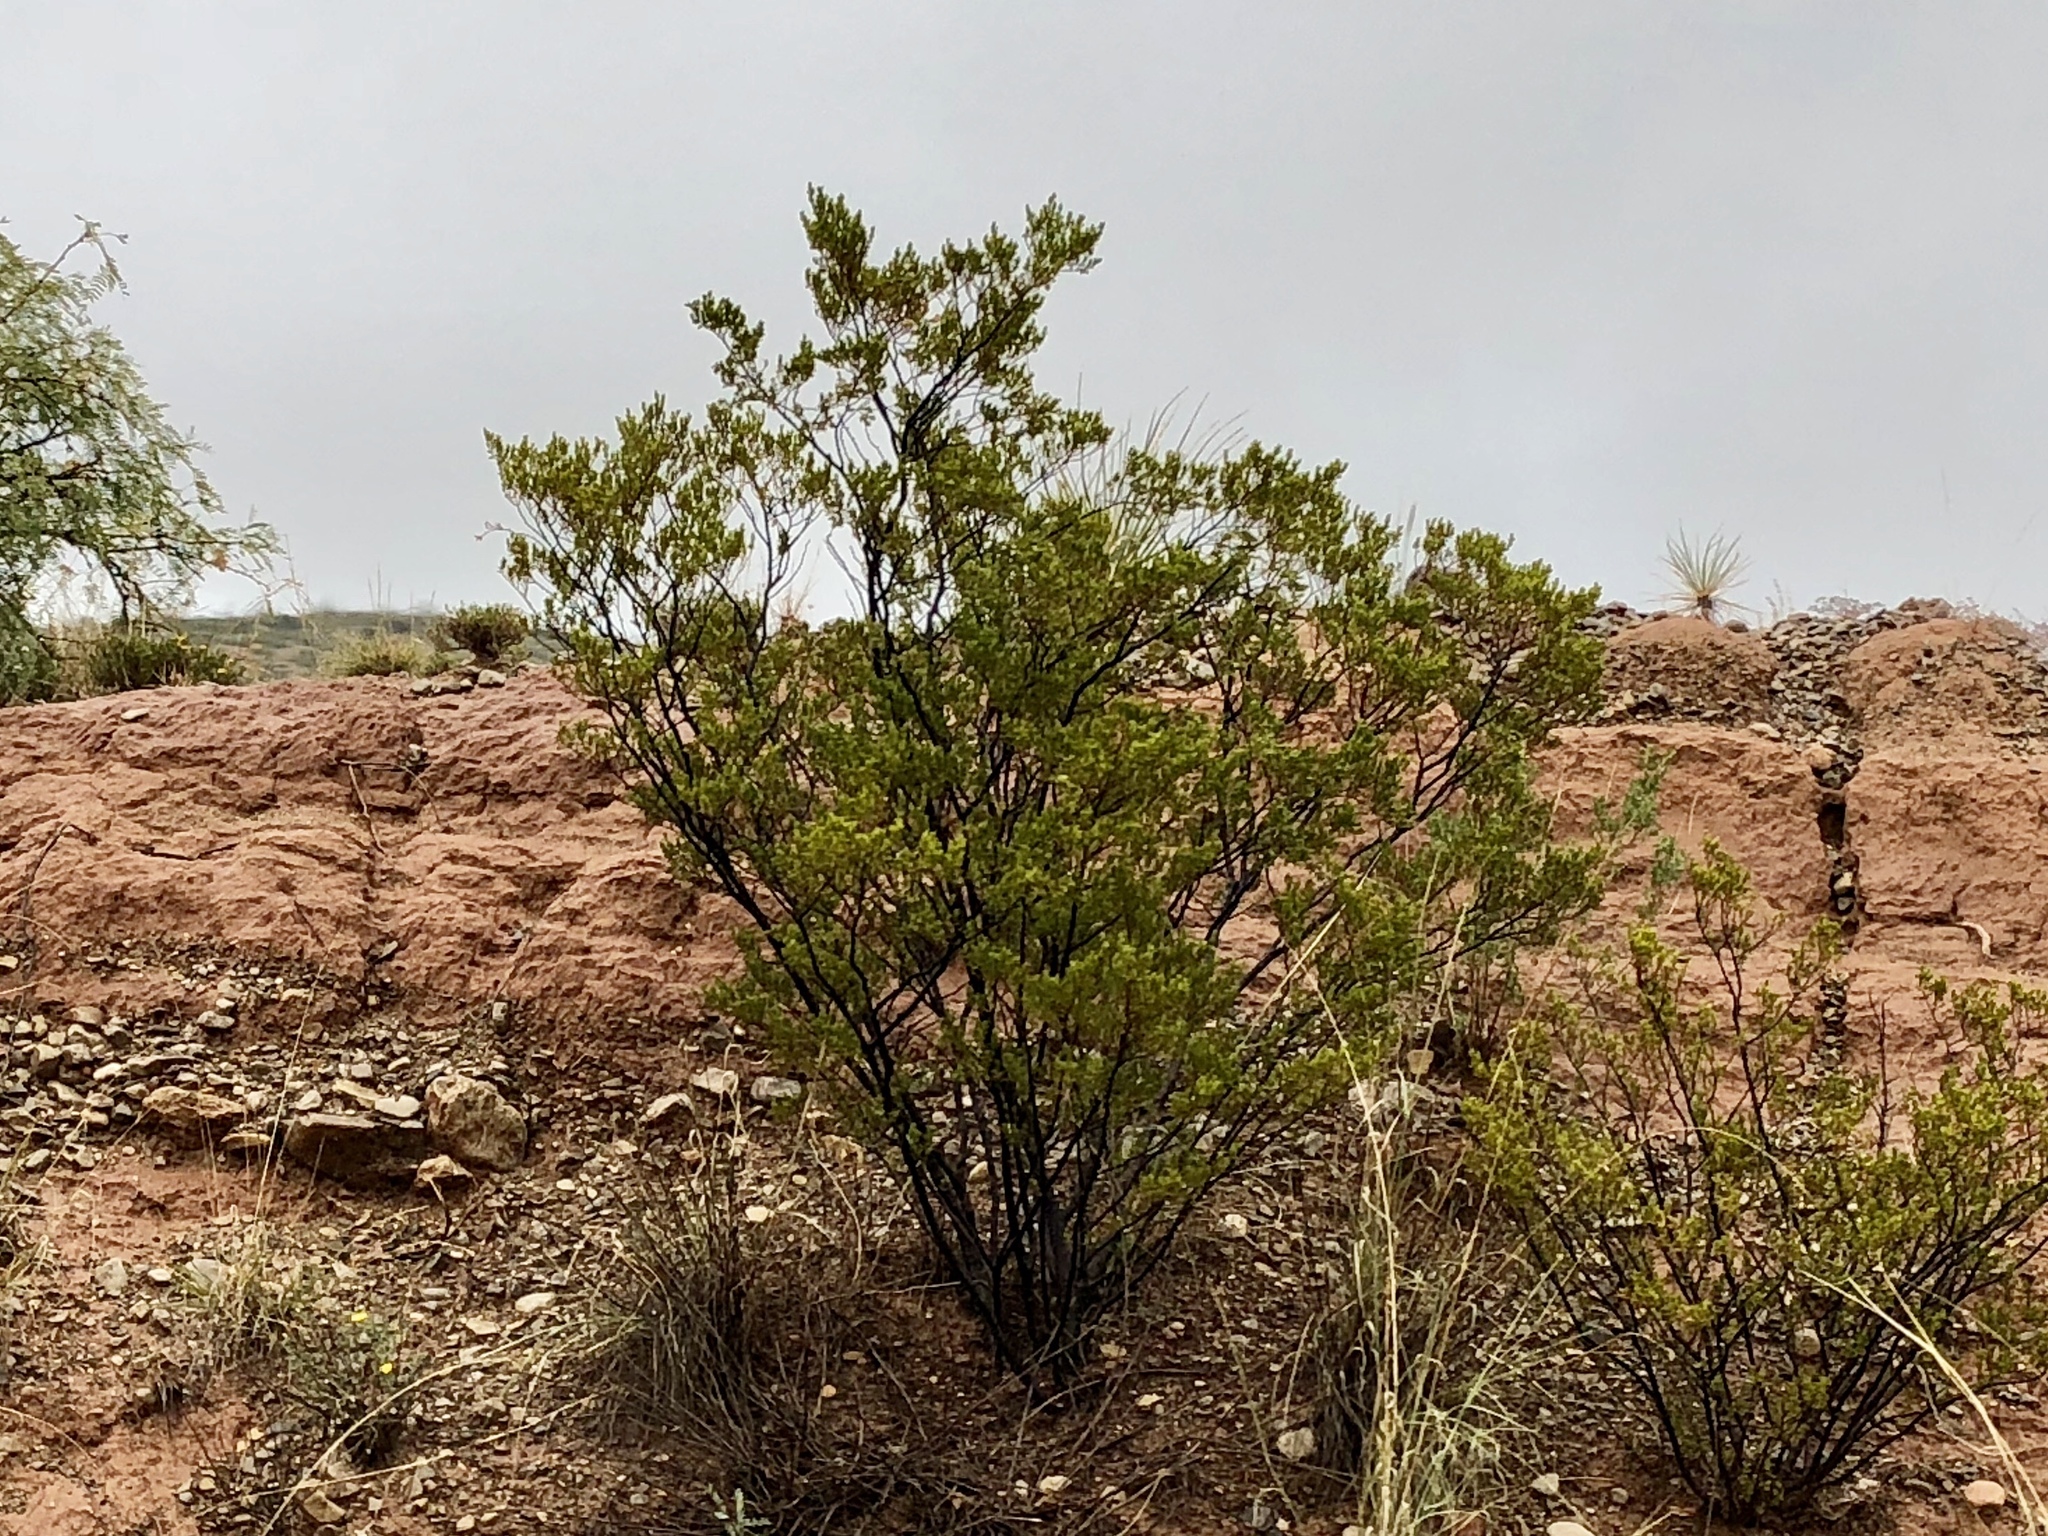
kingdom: Plantae
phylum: Tracheophyta
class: Magnoliopsida
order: Zygophyllales
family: Zygophyllaceae
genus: Larrea
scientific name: Larrea tridentata
